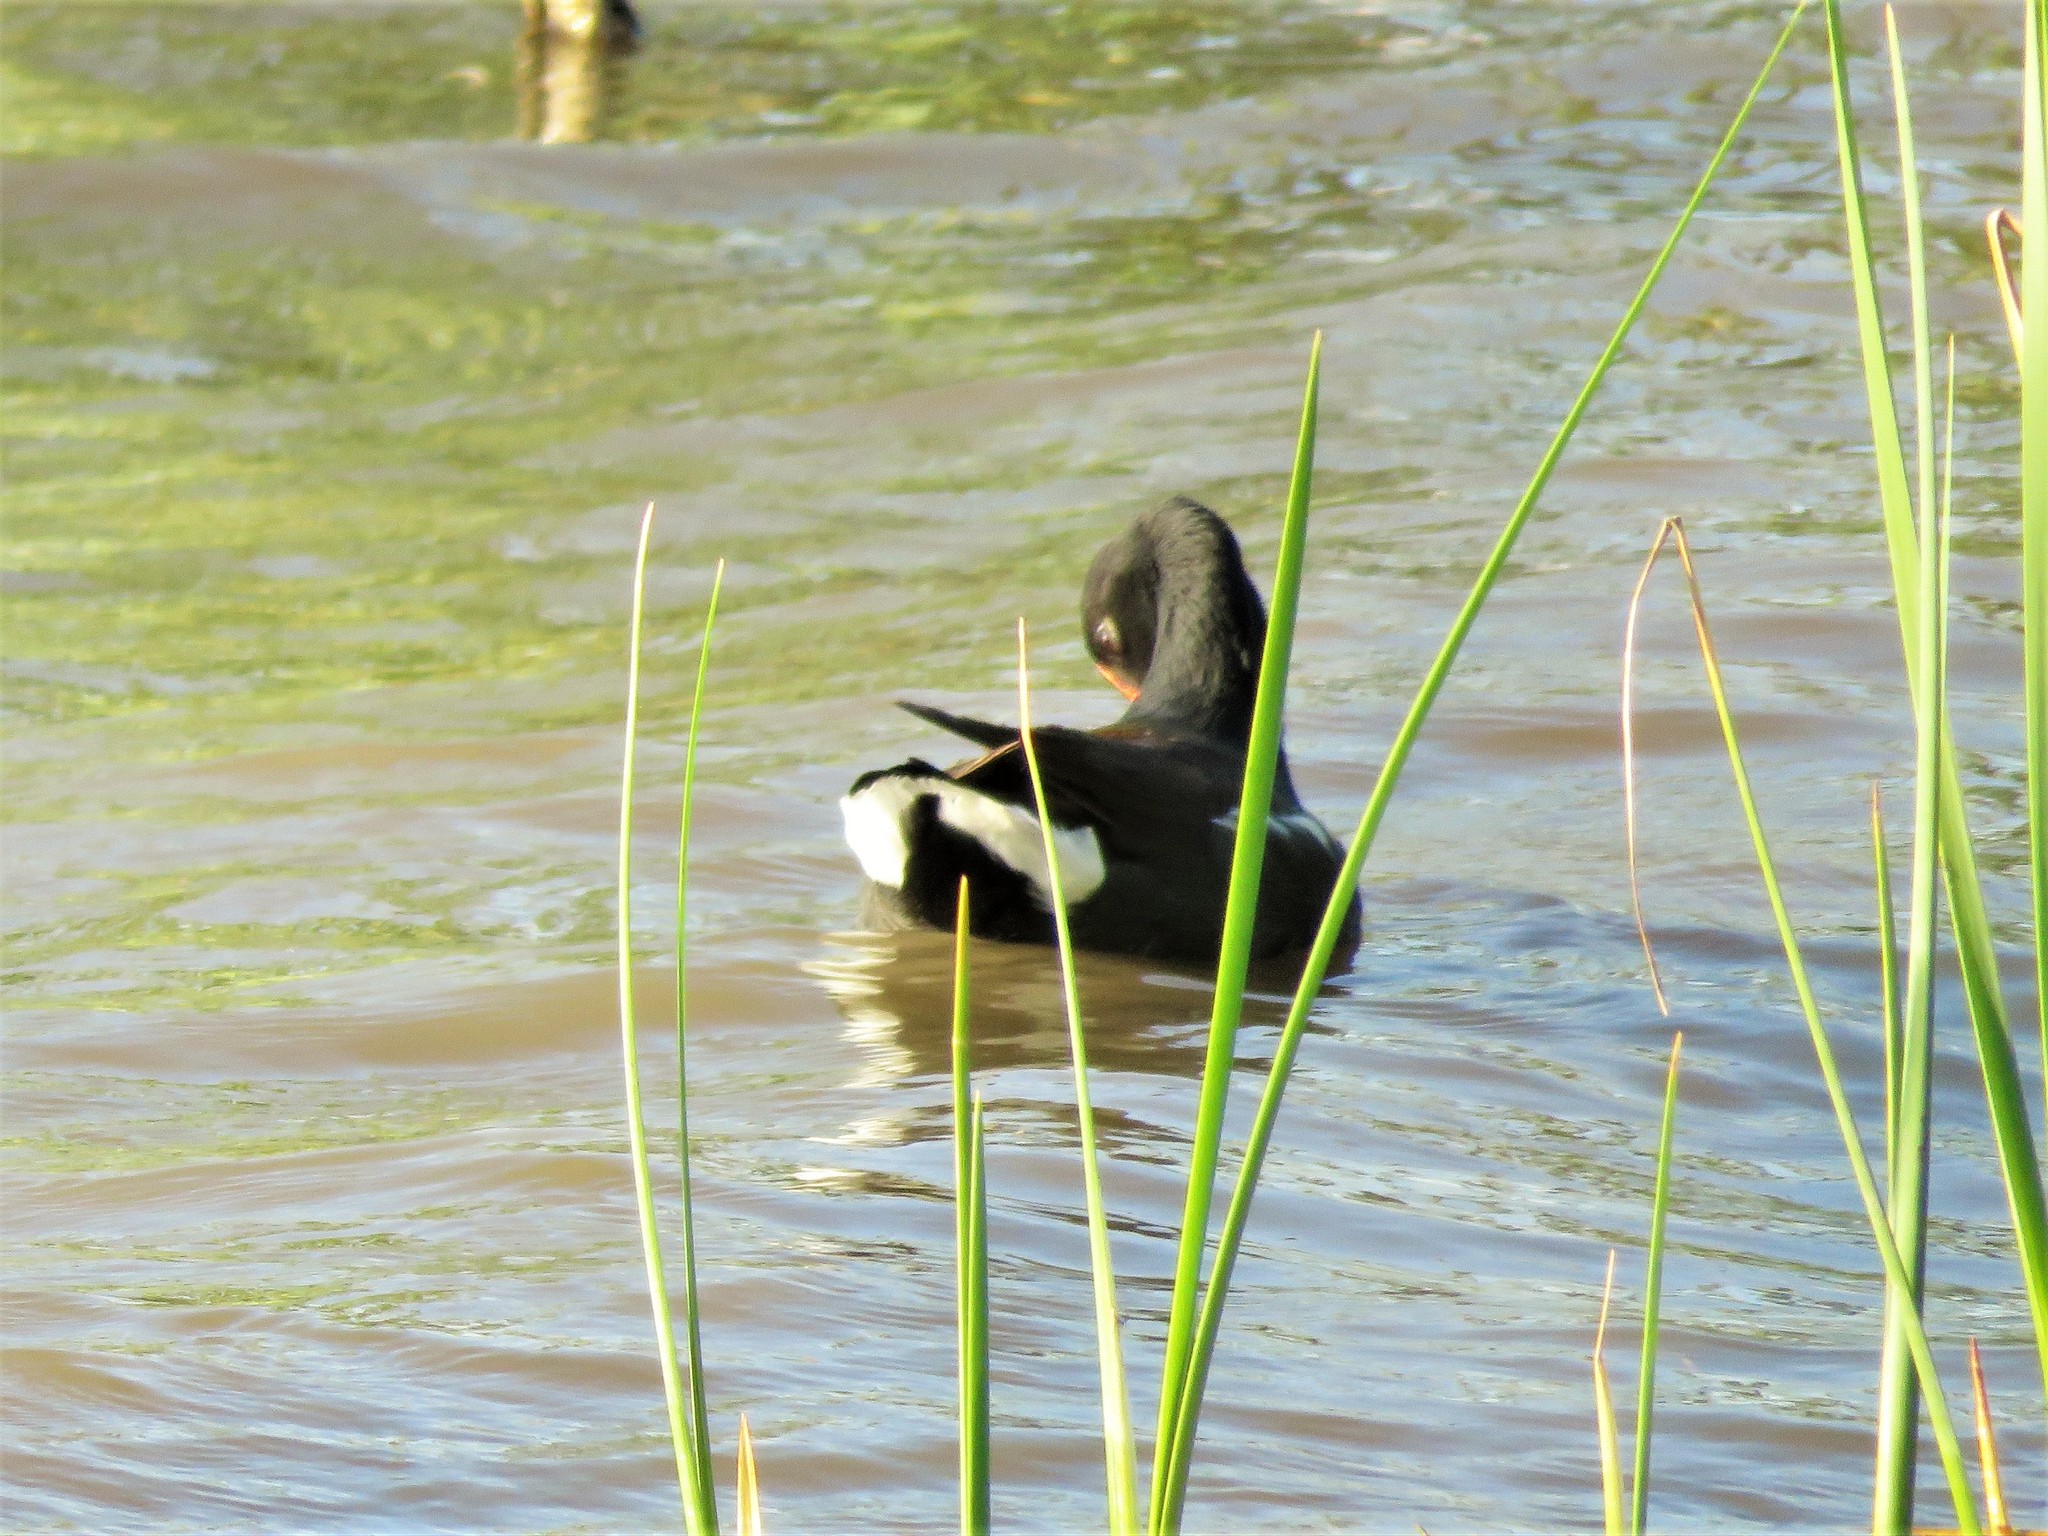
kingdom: Animalia
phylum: Chordata
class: Aves
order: Gruiformes
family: Rallidae
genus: Gallinula
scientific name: Gallinula chloropus
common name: Common moorhen
